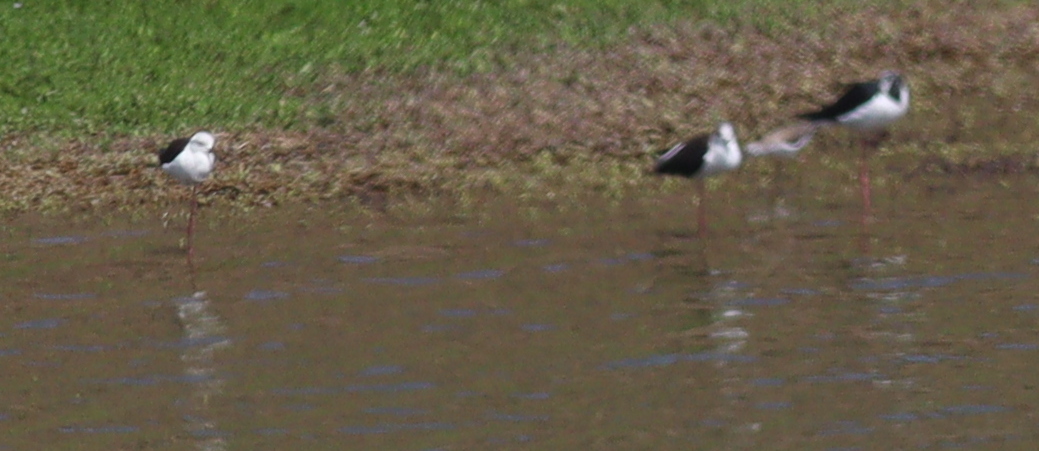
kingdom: Animalia
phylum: Chordata
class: Aves
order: Charadriiformes
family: Recurvirostridae
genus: Himantopus
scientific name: Himantopus himantopus
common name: Black-winged stilt
